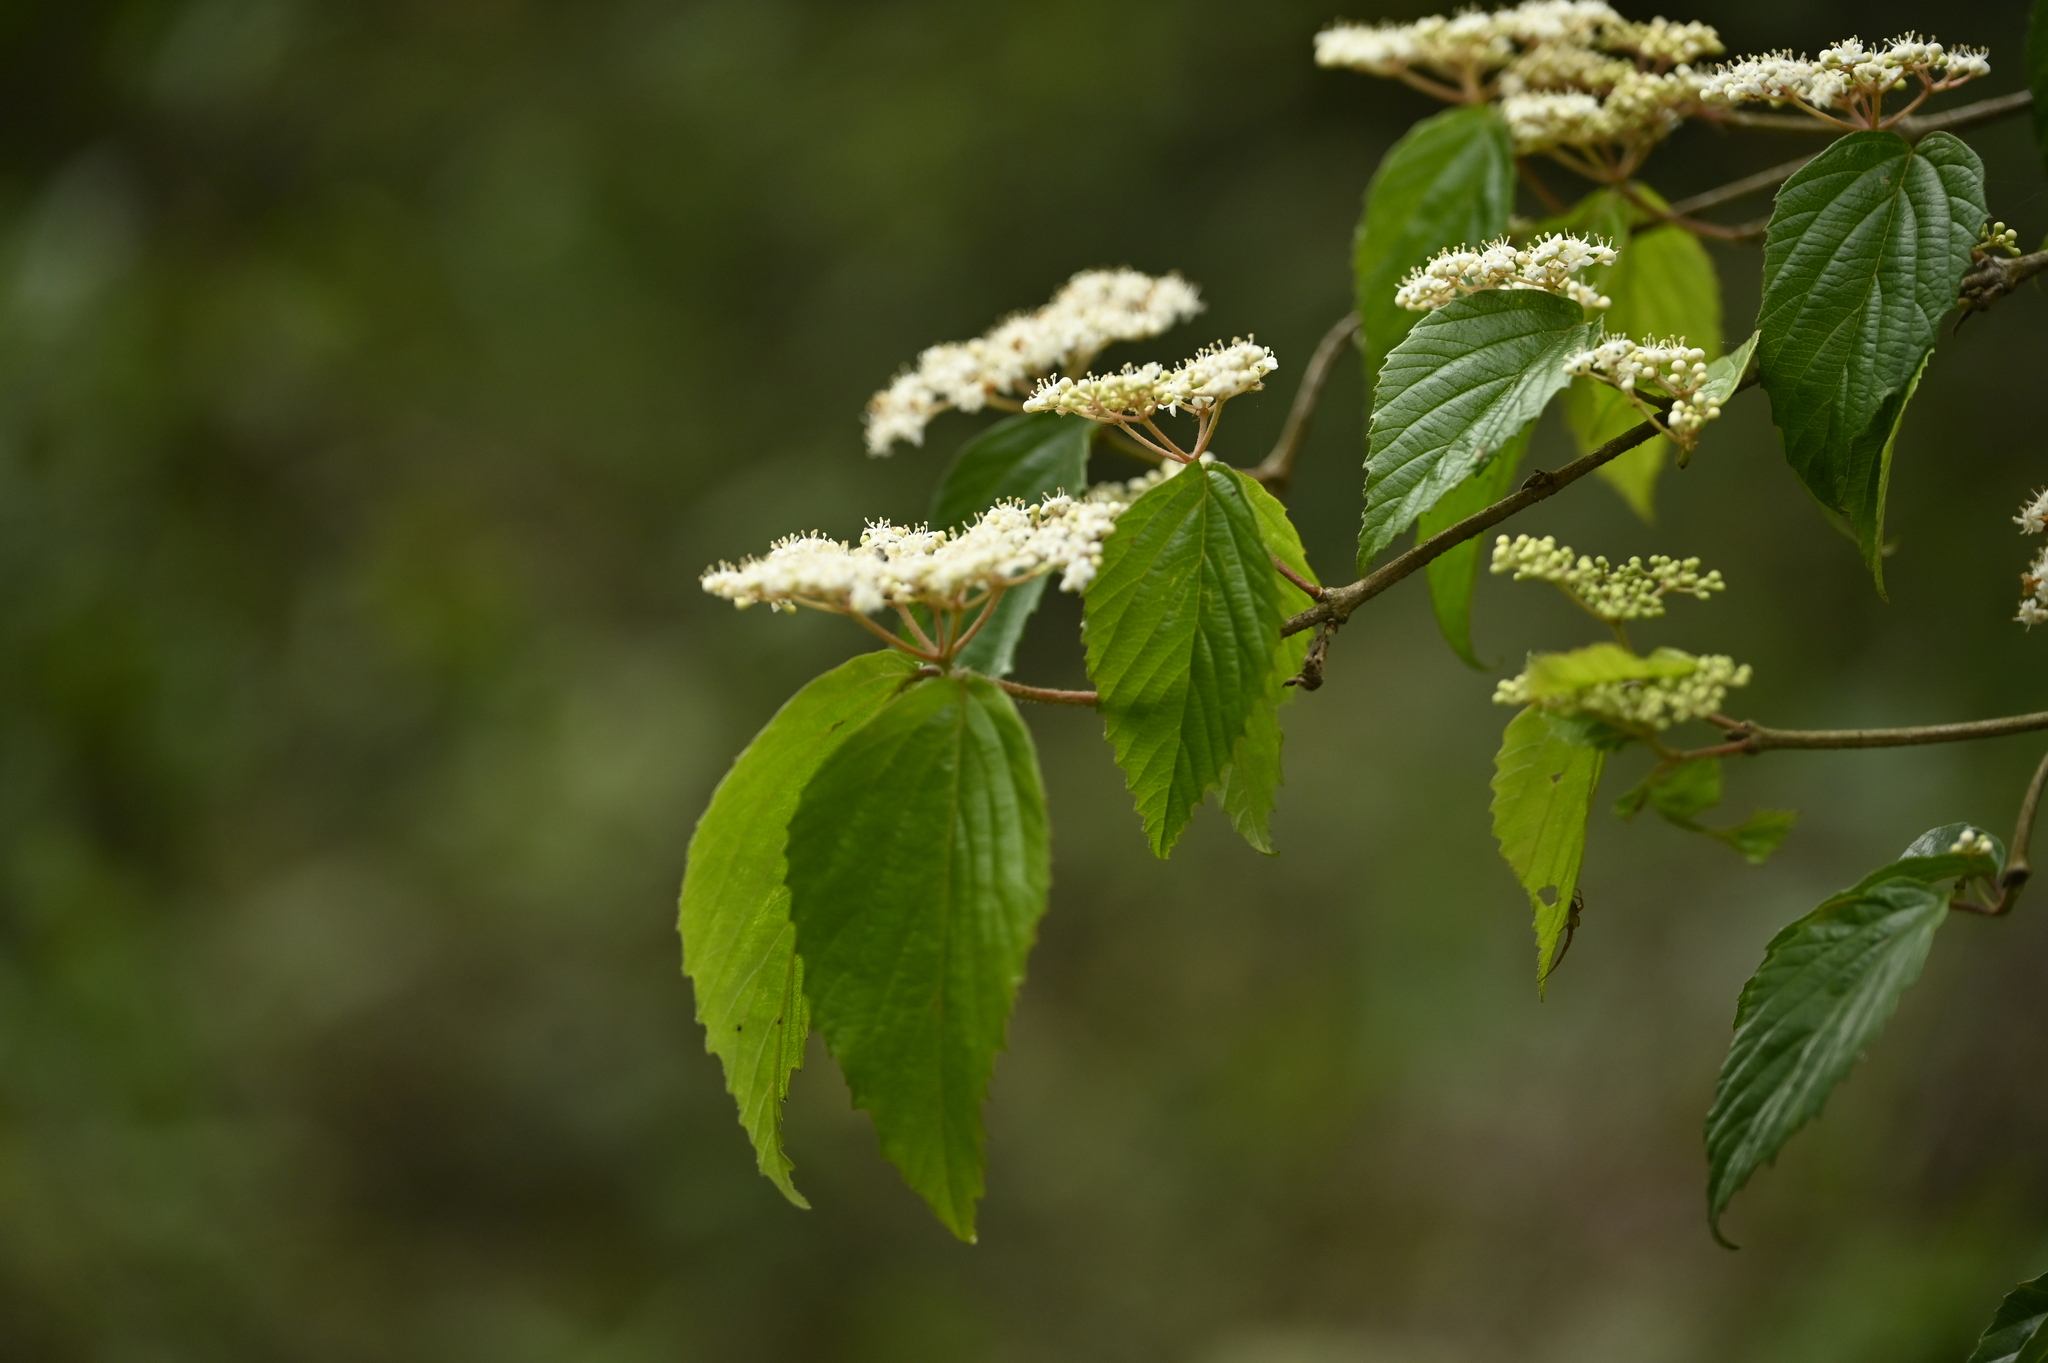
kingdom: Plantae
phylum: Tracheophyta
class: Magnoliopsida
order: Dipsacales
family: Viburnaceae
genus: Viburnum
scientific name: Viburnum luzonicum
